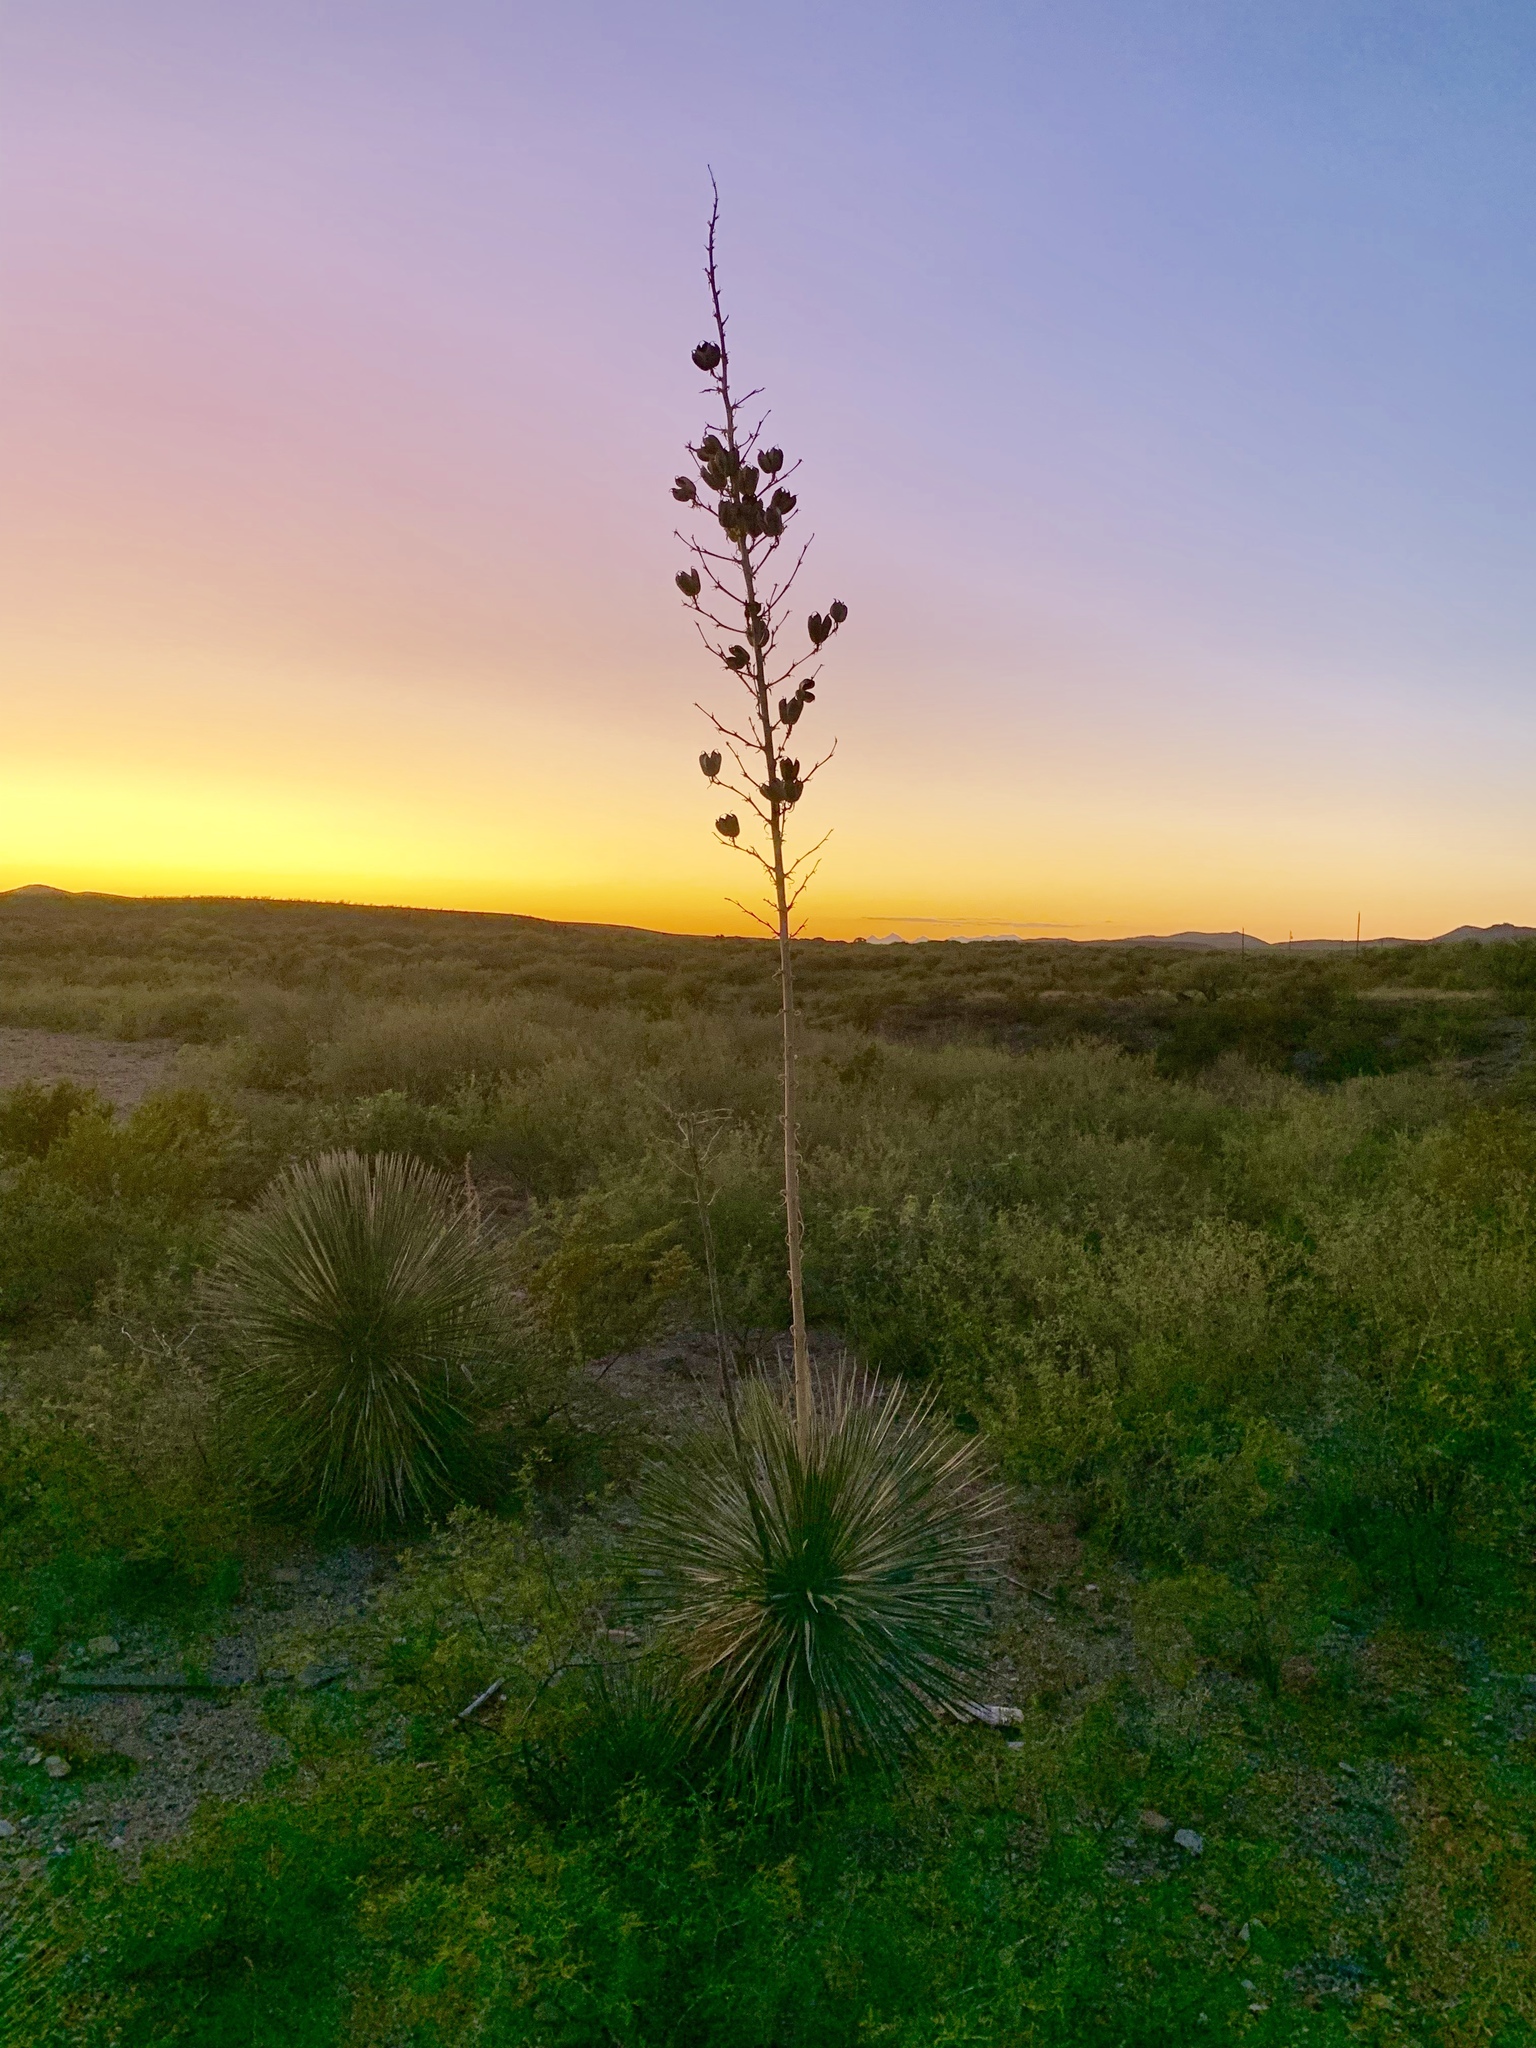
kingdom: Plantae
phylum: Tracheophyta
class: Liliopsida
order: Asparagales
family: Asparagaceae
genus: Yucca
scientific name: Yucca elata
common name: Palmella
